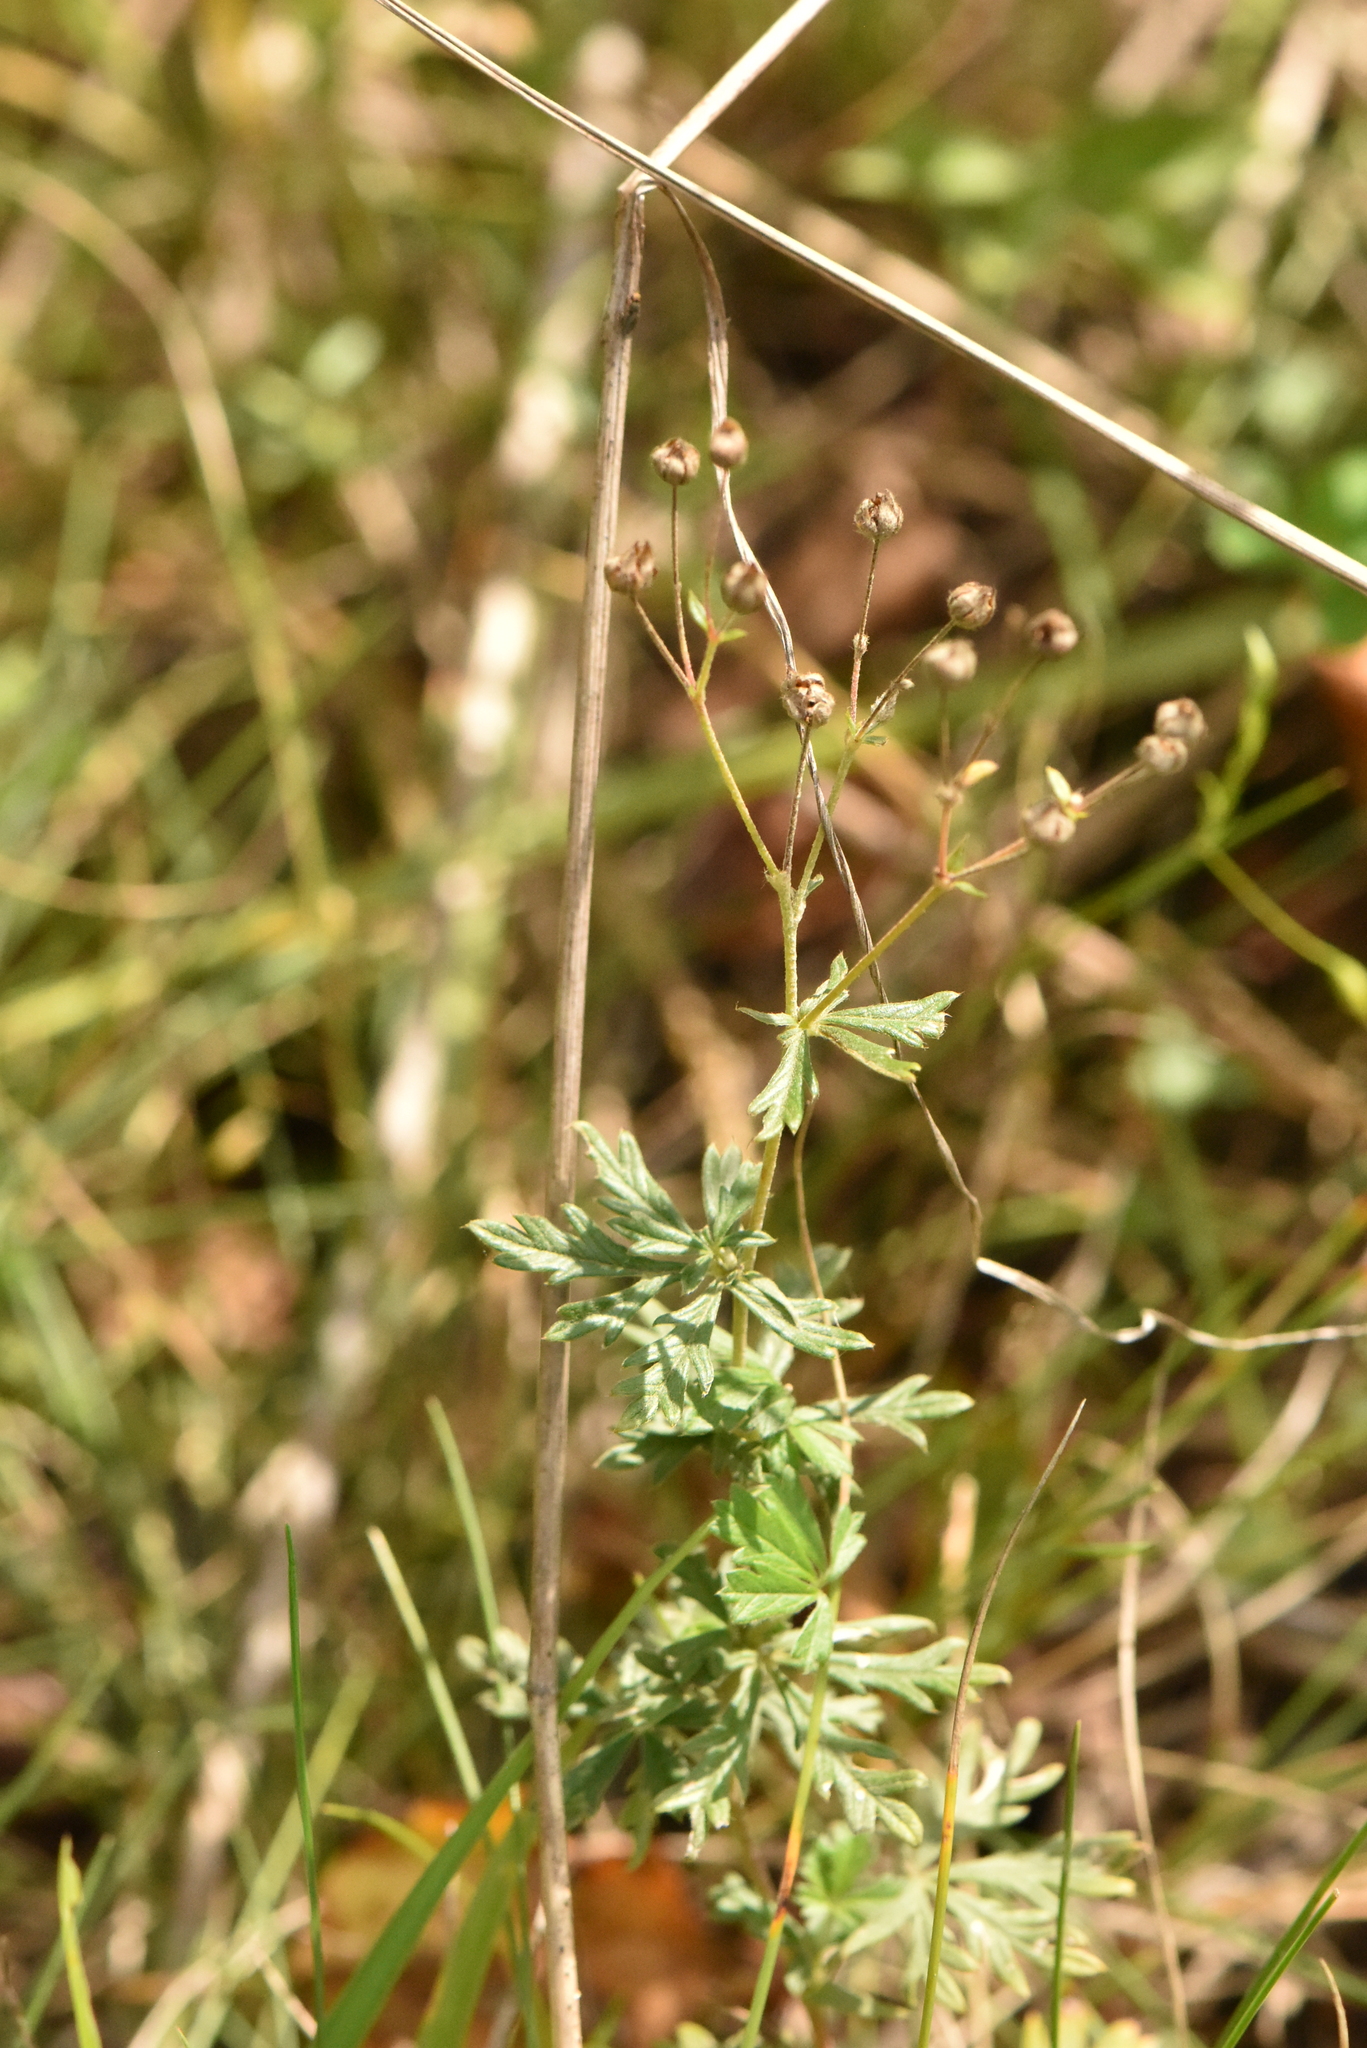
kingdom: Plantae
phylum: Tracheophyta
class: Magnoliopsida
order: Rosales
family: Rosaceae
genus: Potentilla
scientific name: Potentilla argentea
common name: Hoary cinquefoil
